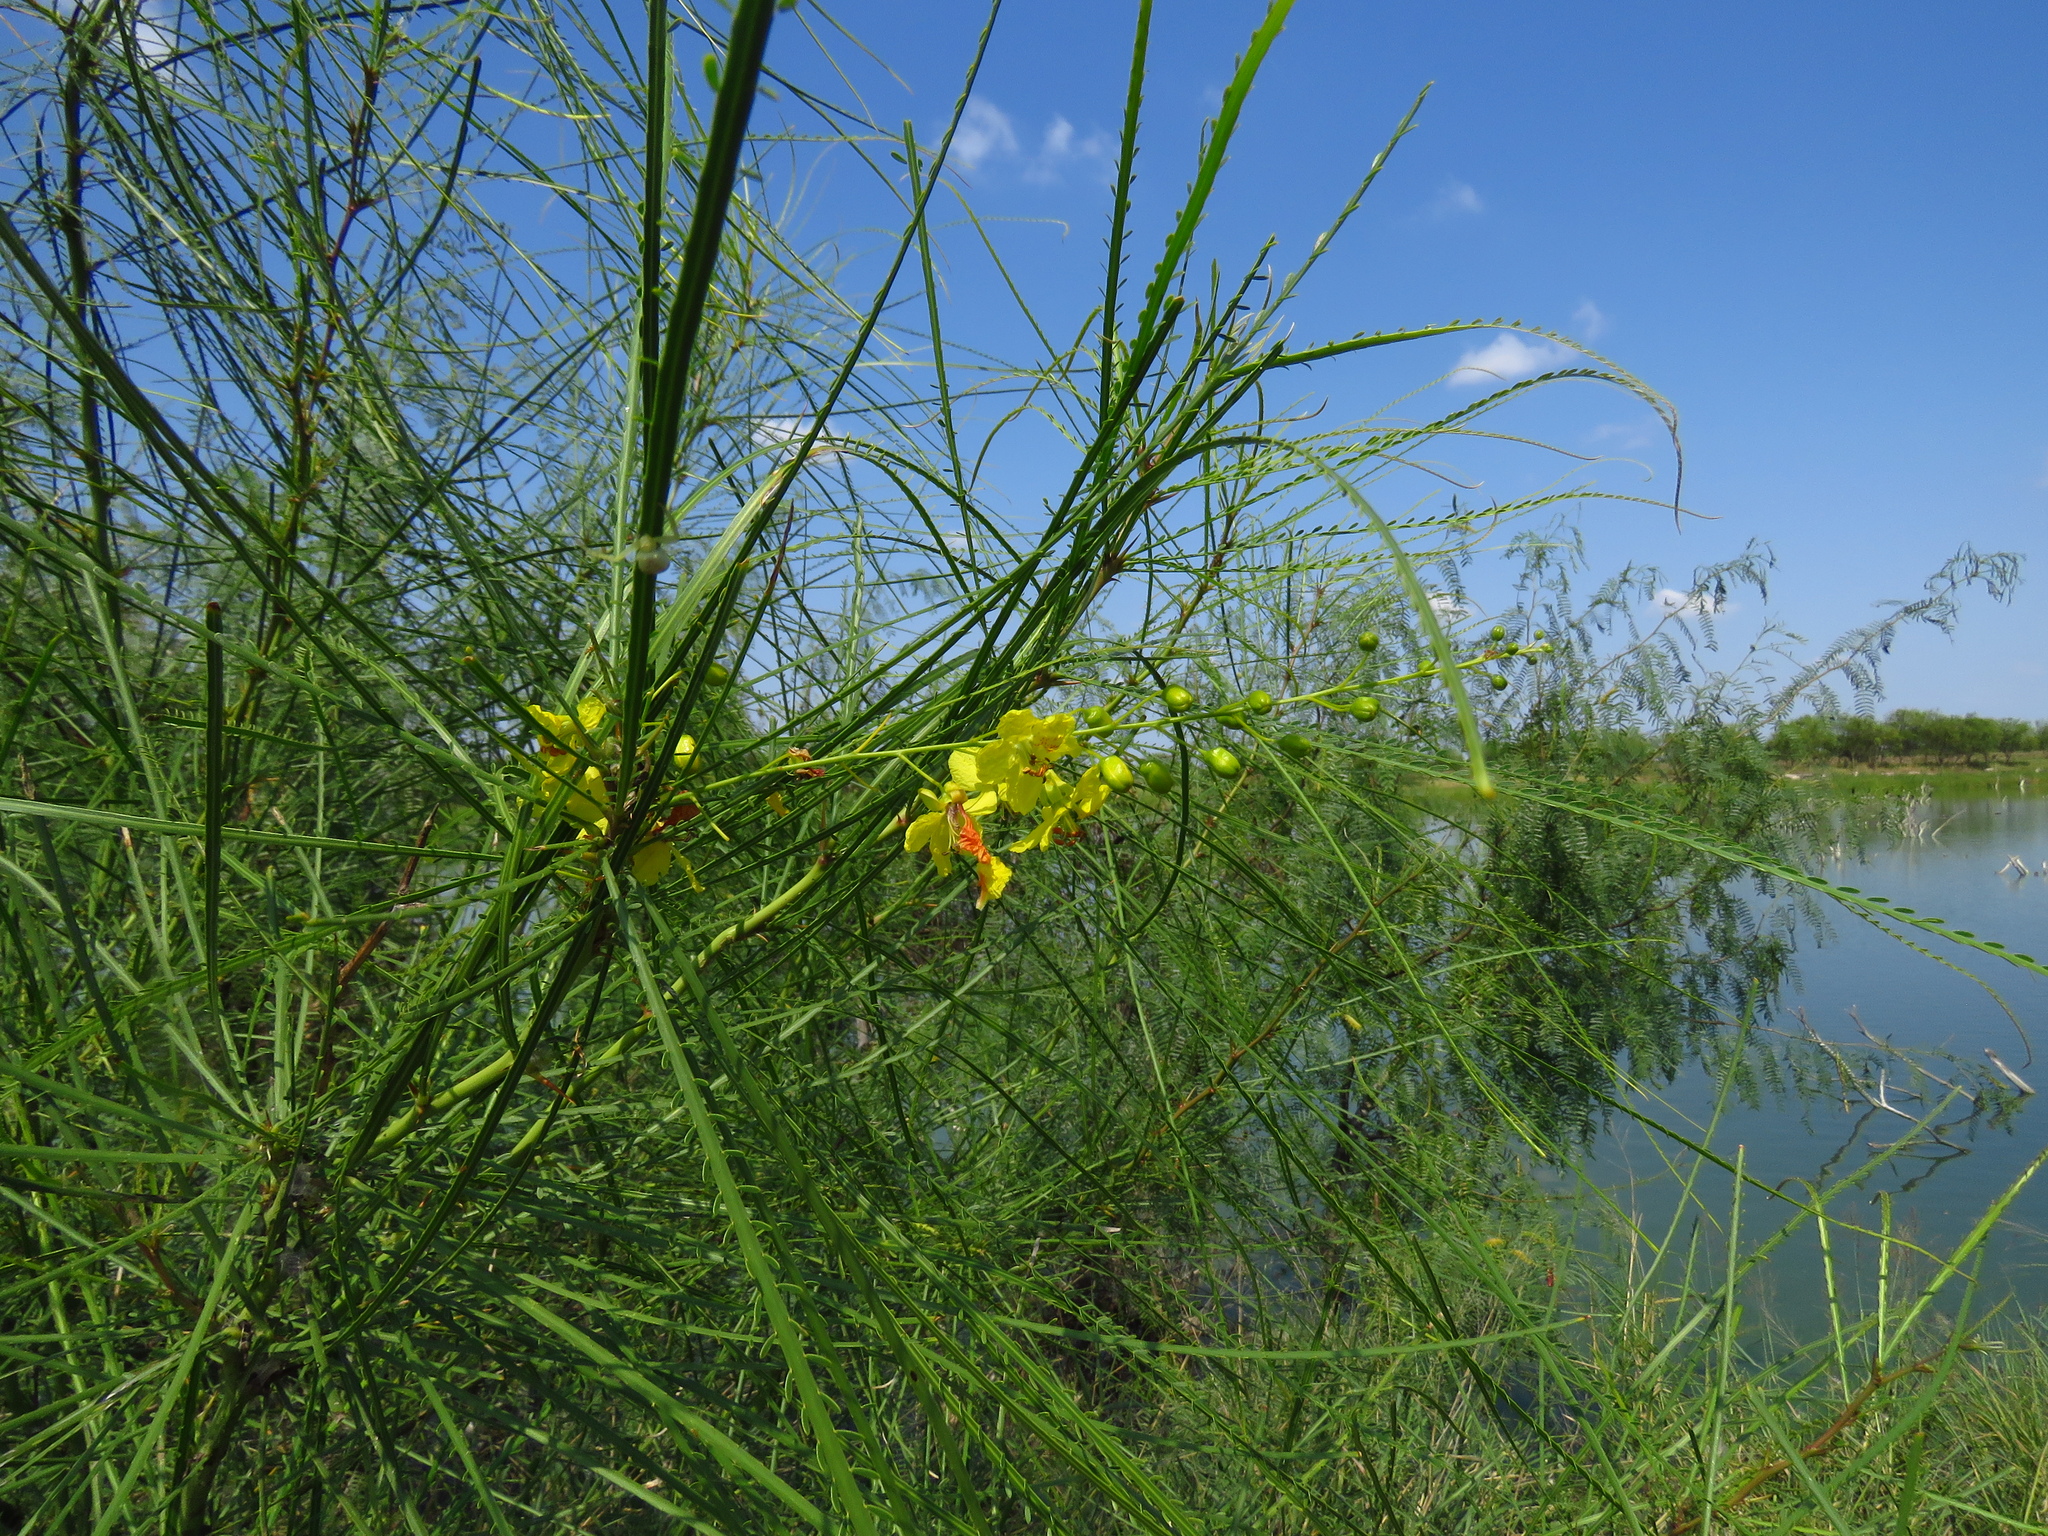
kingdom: Plantae
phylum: Tracheophyta
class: Magnoliopsida
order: Fabales
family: Fabaceae
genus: Parkinsonia
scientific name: Parkinsonia aculeata
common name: Jerusalem thorn
